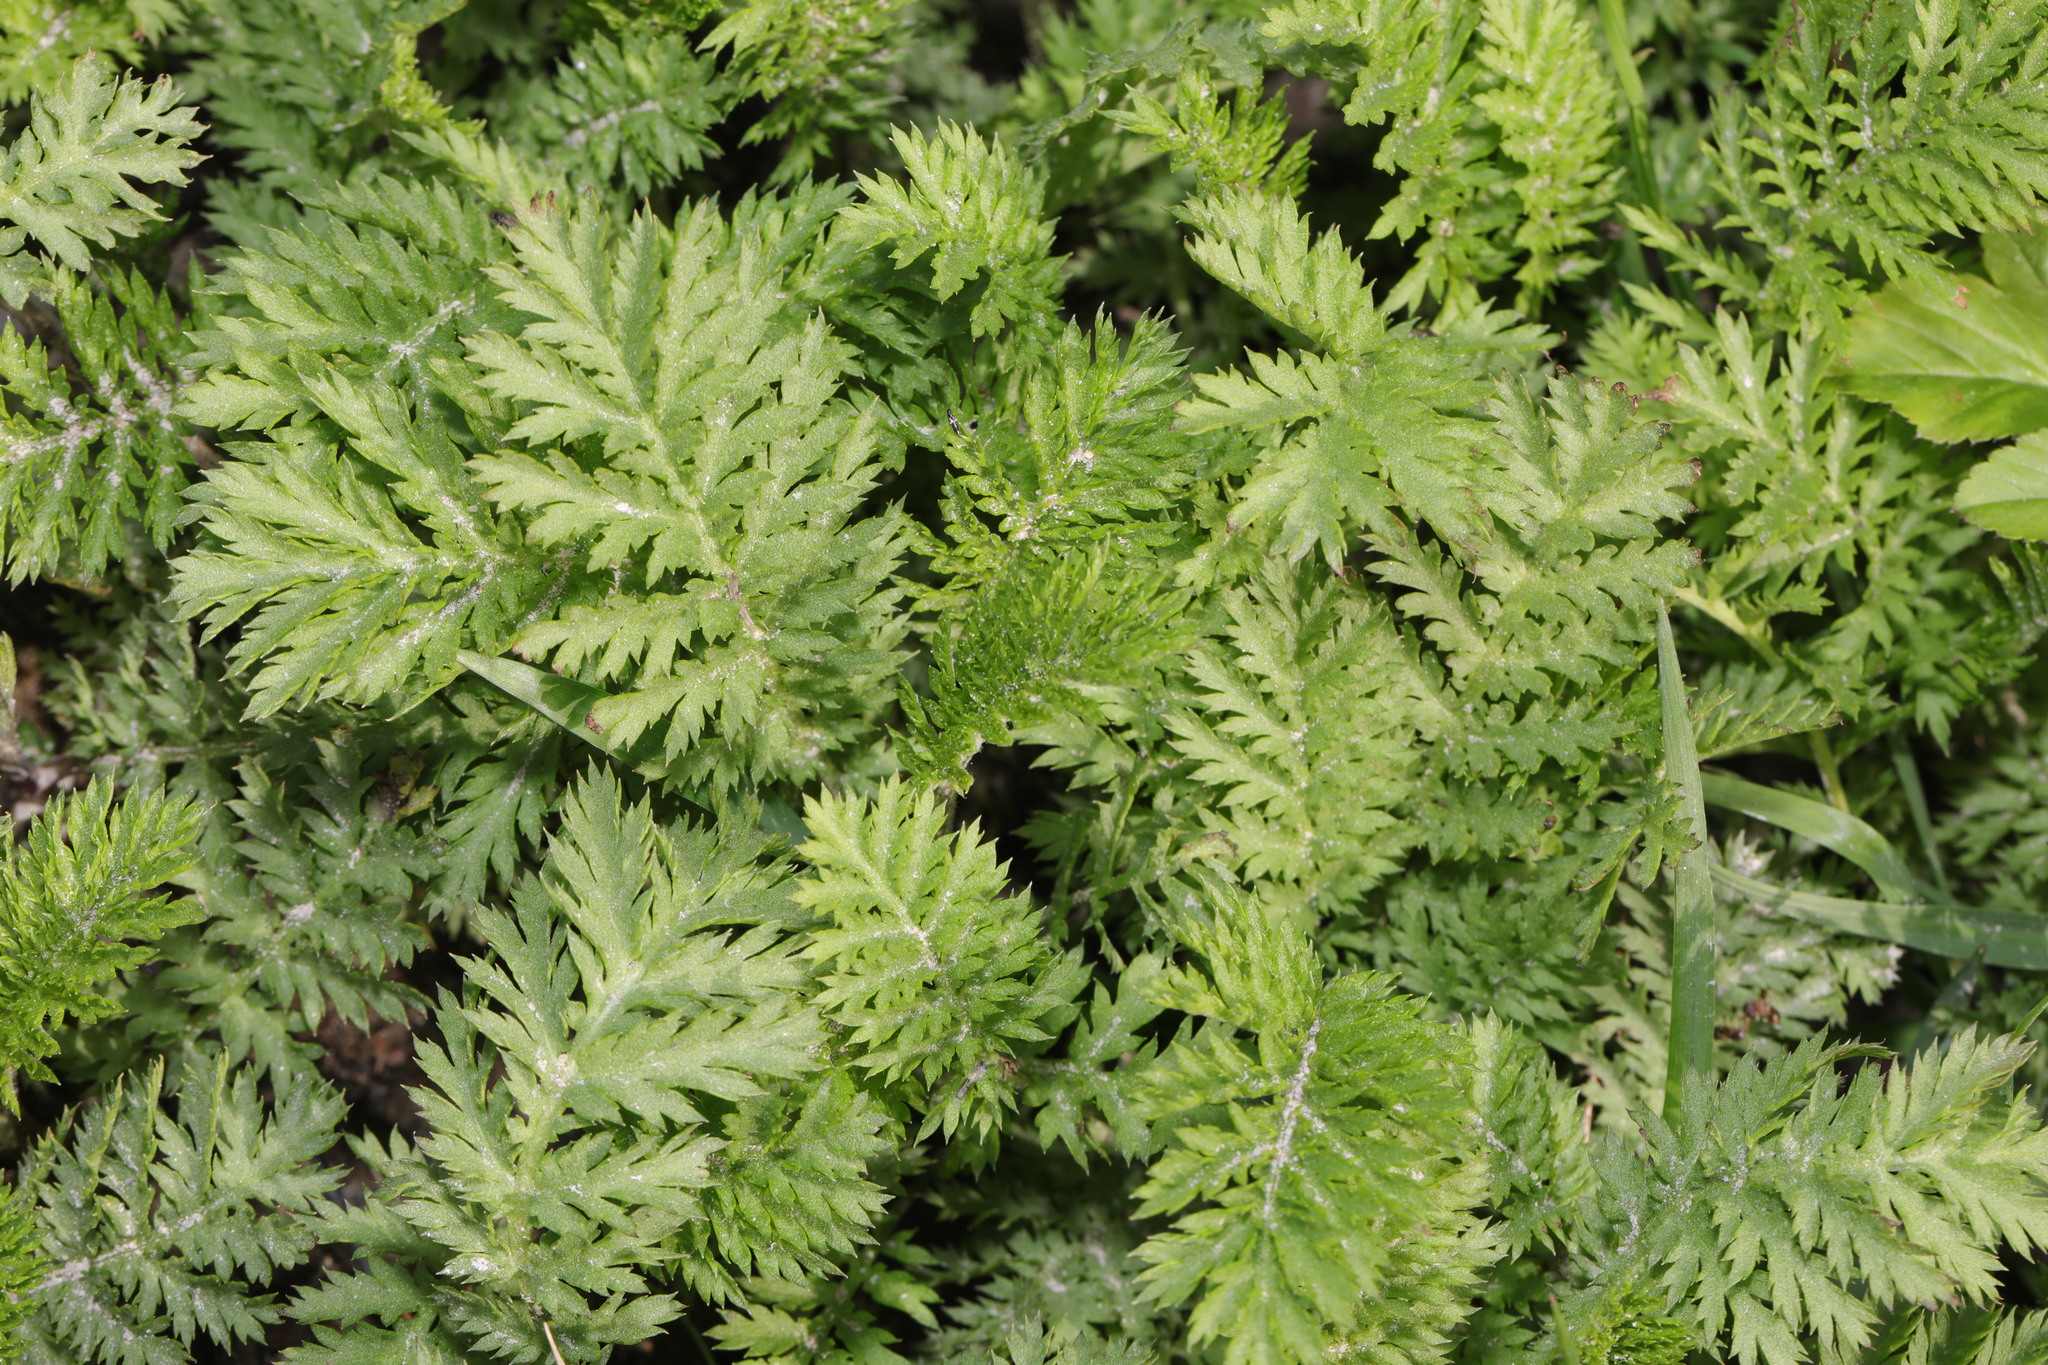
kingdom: Plantae
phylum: Tracheophyta
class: Magnoliopsida
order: Asterales
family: Asteraceae
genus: Tanacetum
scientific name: Tanacetum vulgare
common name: Common tansy
